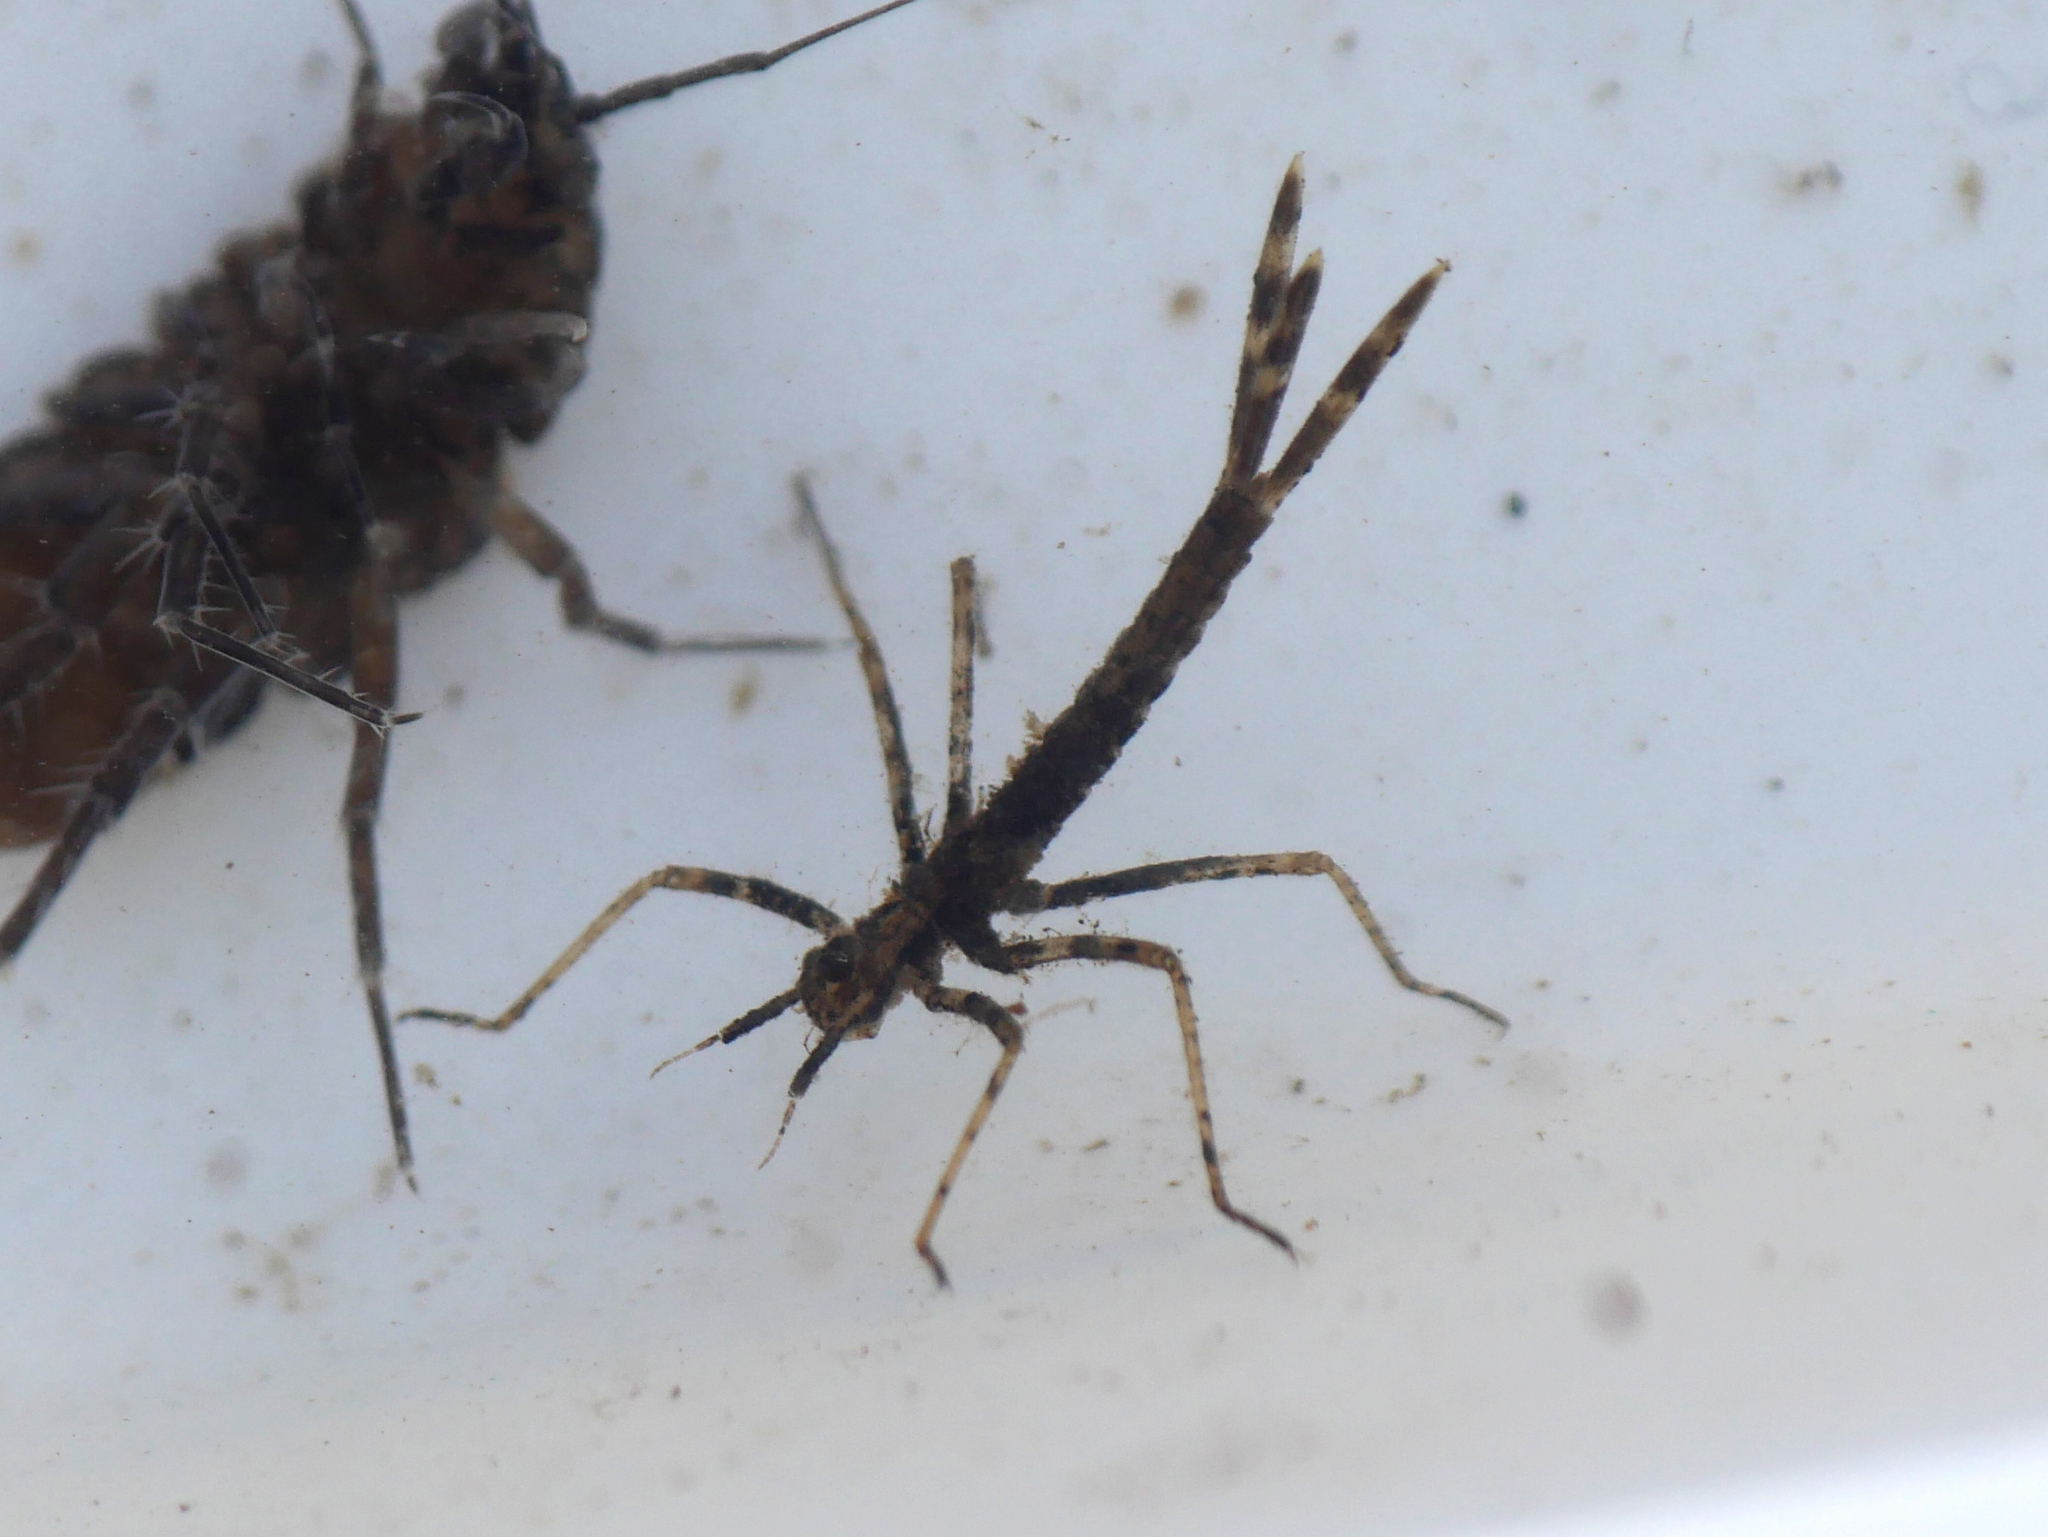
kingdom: Animalia
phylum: Arthropoda
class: Insecta
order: Odonata
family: Calopterygidae
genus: Calopteryx
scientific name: Calopteryx splendens
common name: Banded demoiselle
